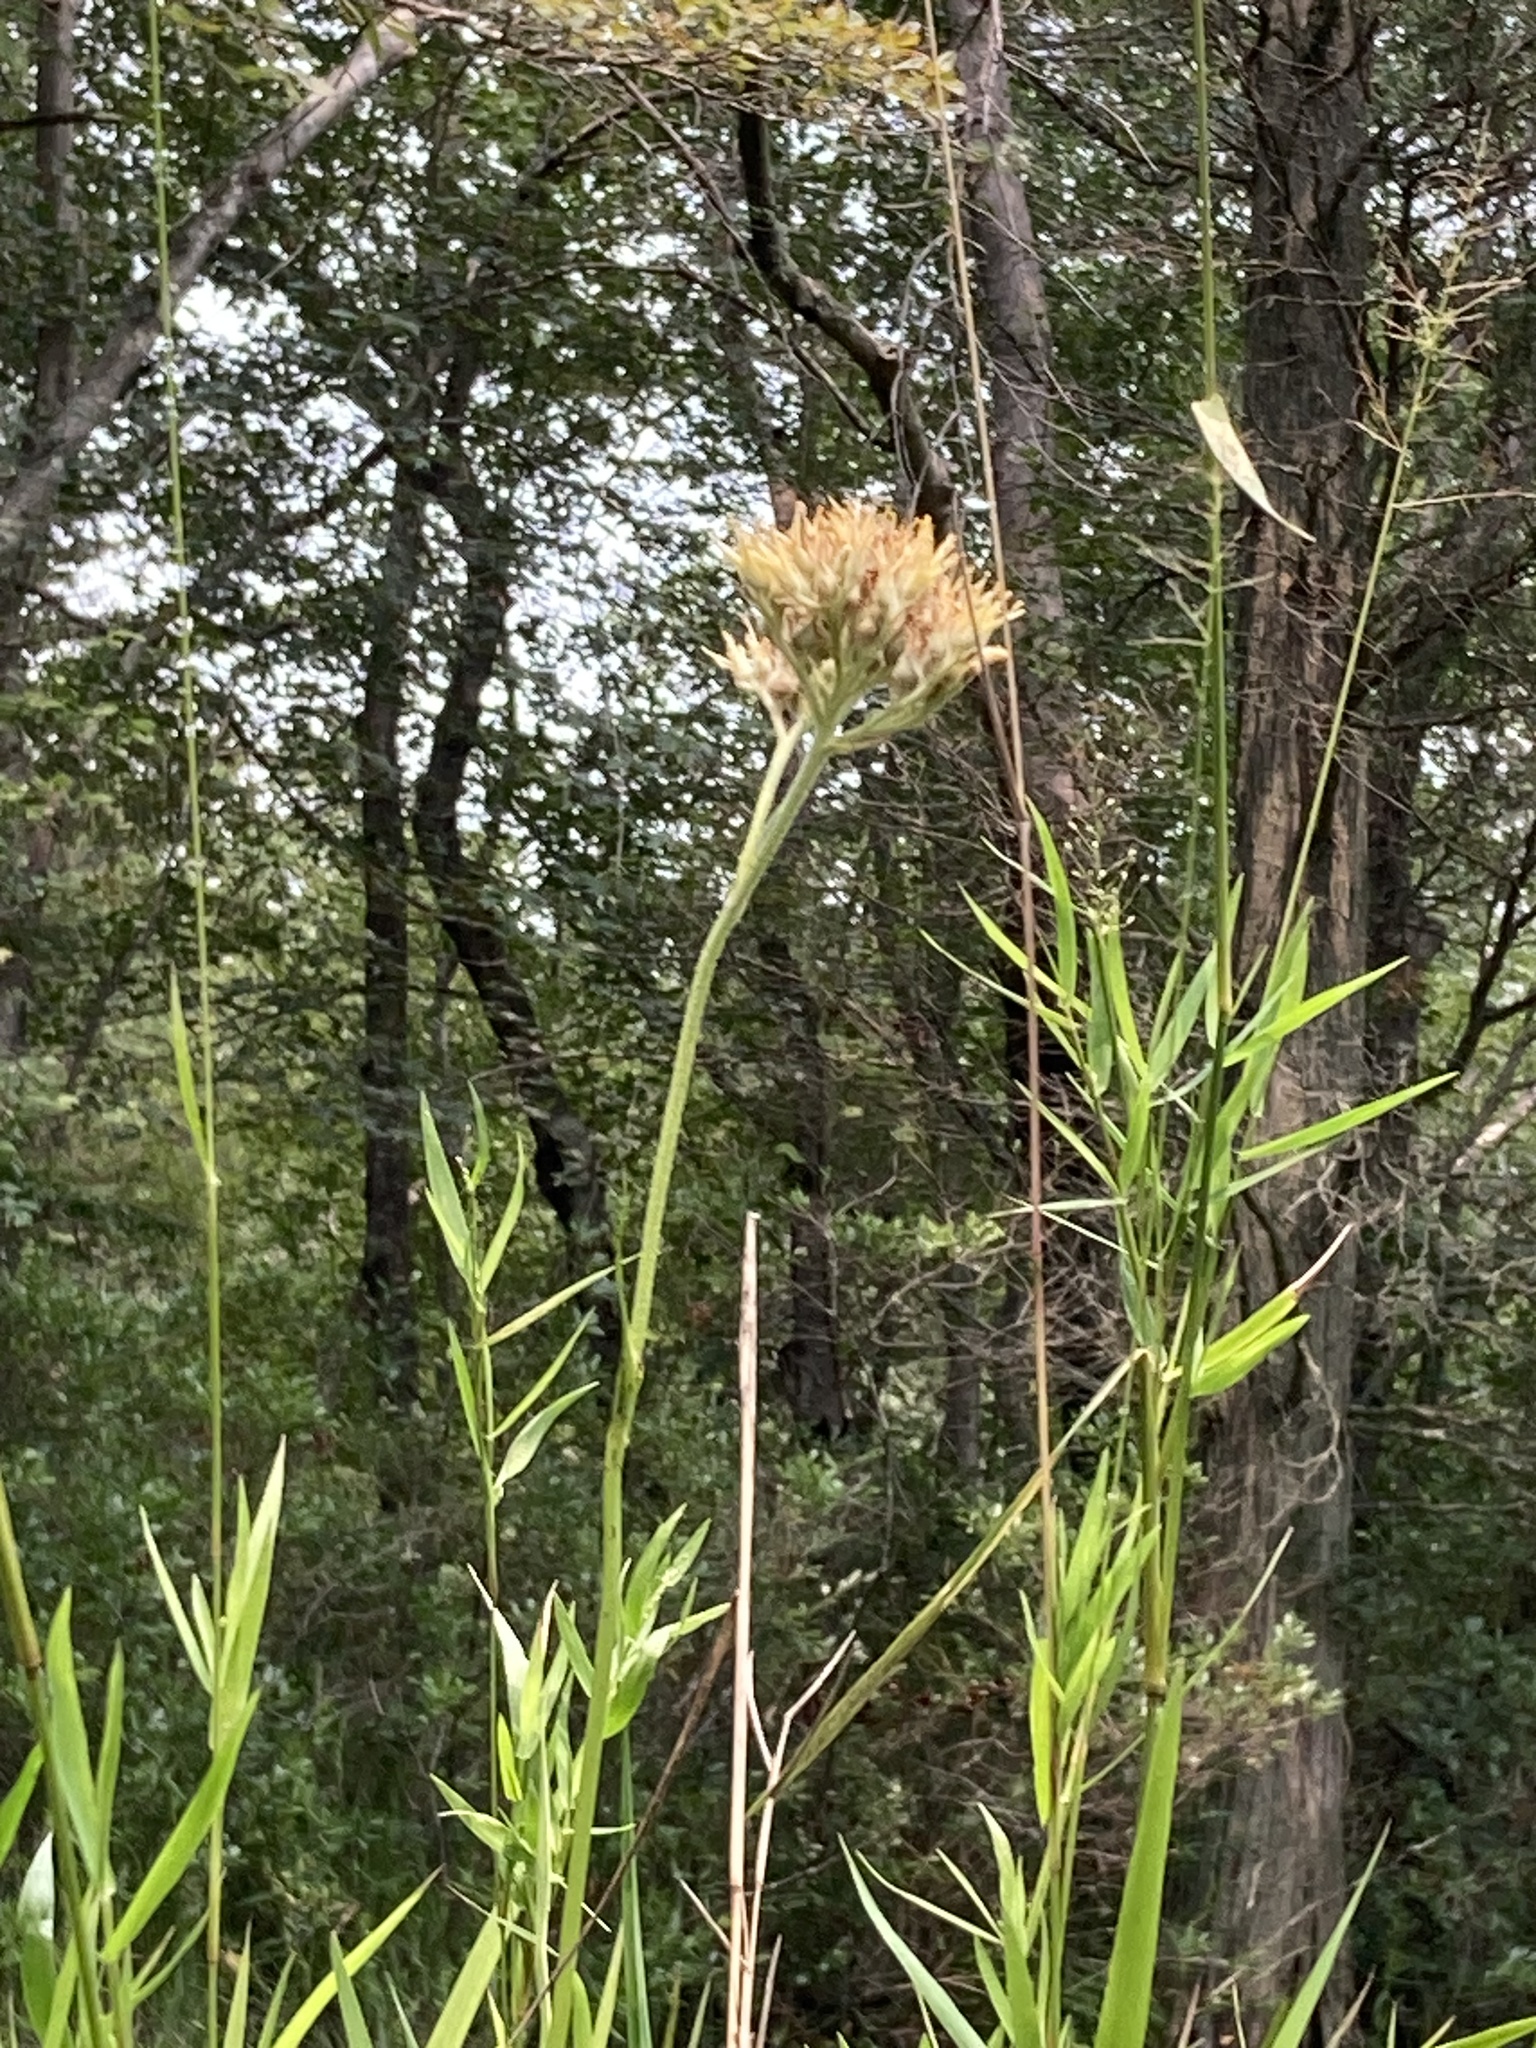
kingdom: Plantae
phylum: Tracheophyta
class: Liliopsida
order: Commelinales
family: Haemodoraceae
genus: Lachnanthes
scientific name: Lachnanthes caroliana
